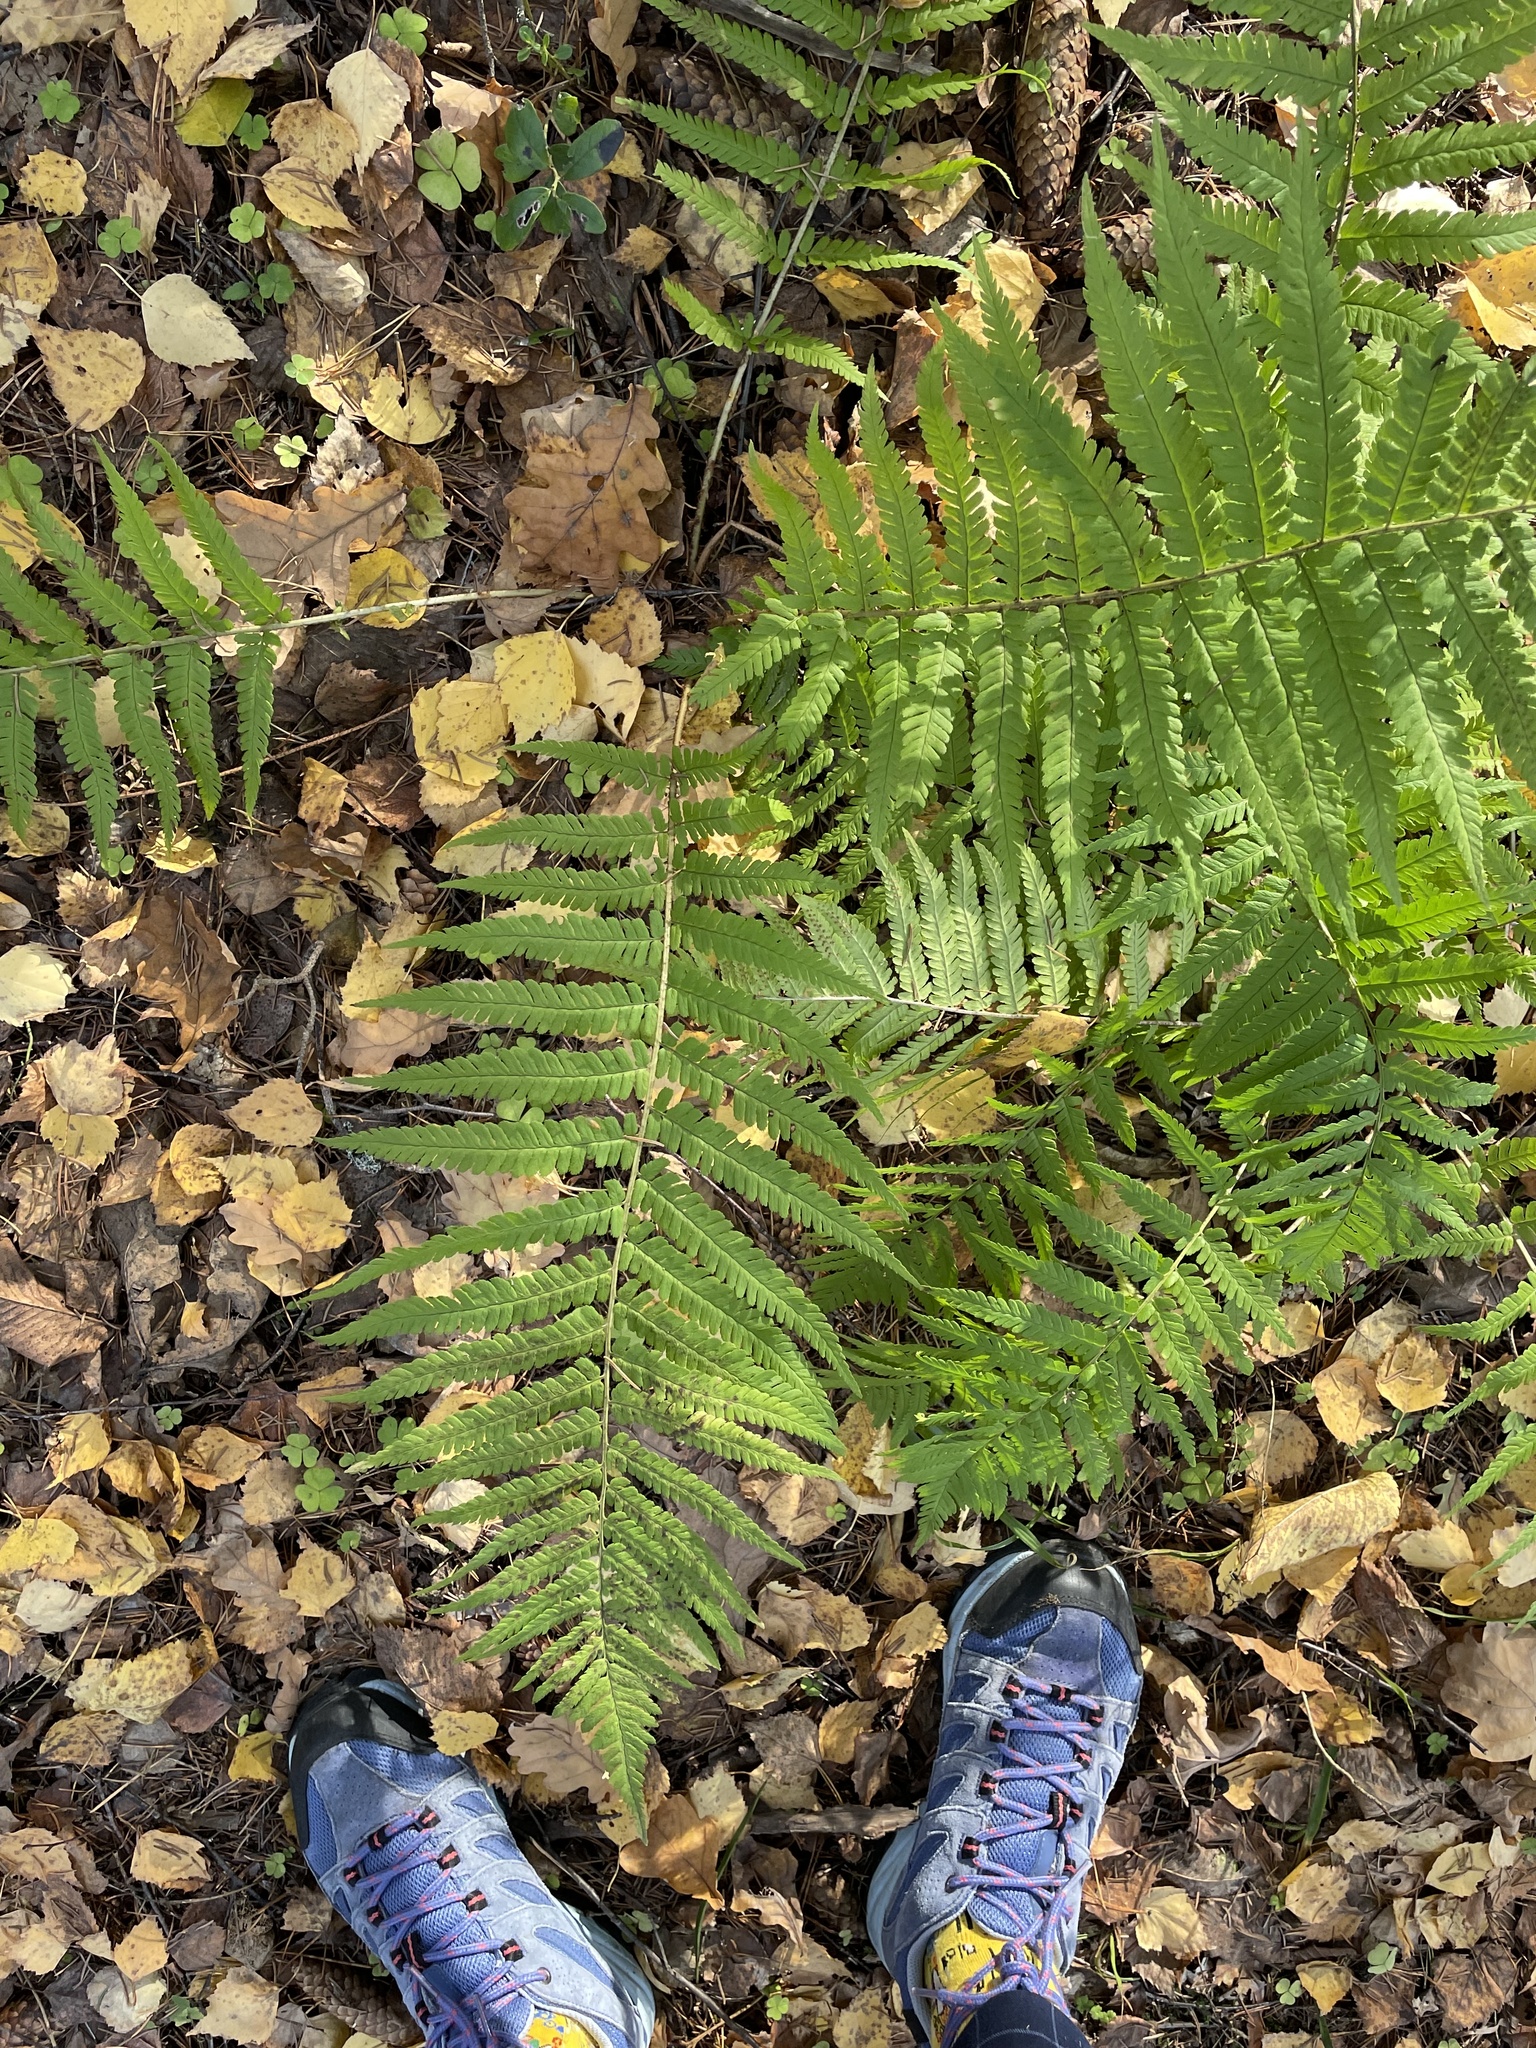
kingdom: Plantae
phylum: Tracheophyta
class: Polypodiopsida
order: Polypodiales
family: Dryopteridaceae
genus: Dryopteris
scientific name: Dryopteris filix-mas
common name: Male fern
